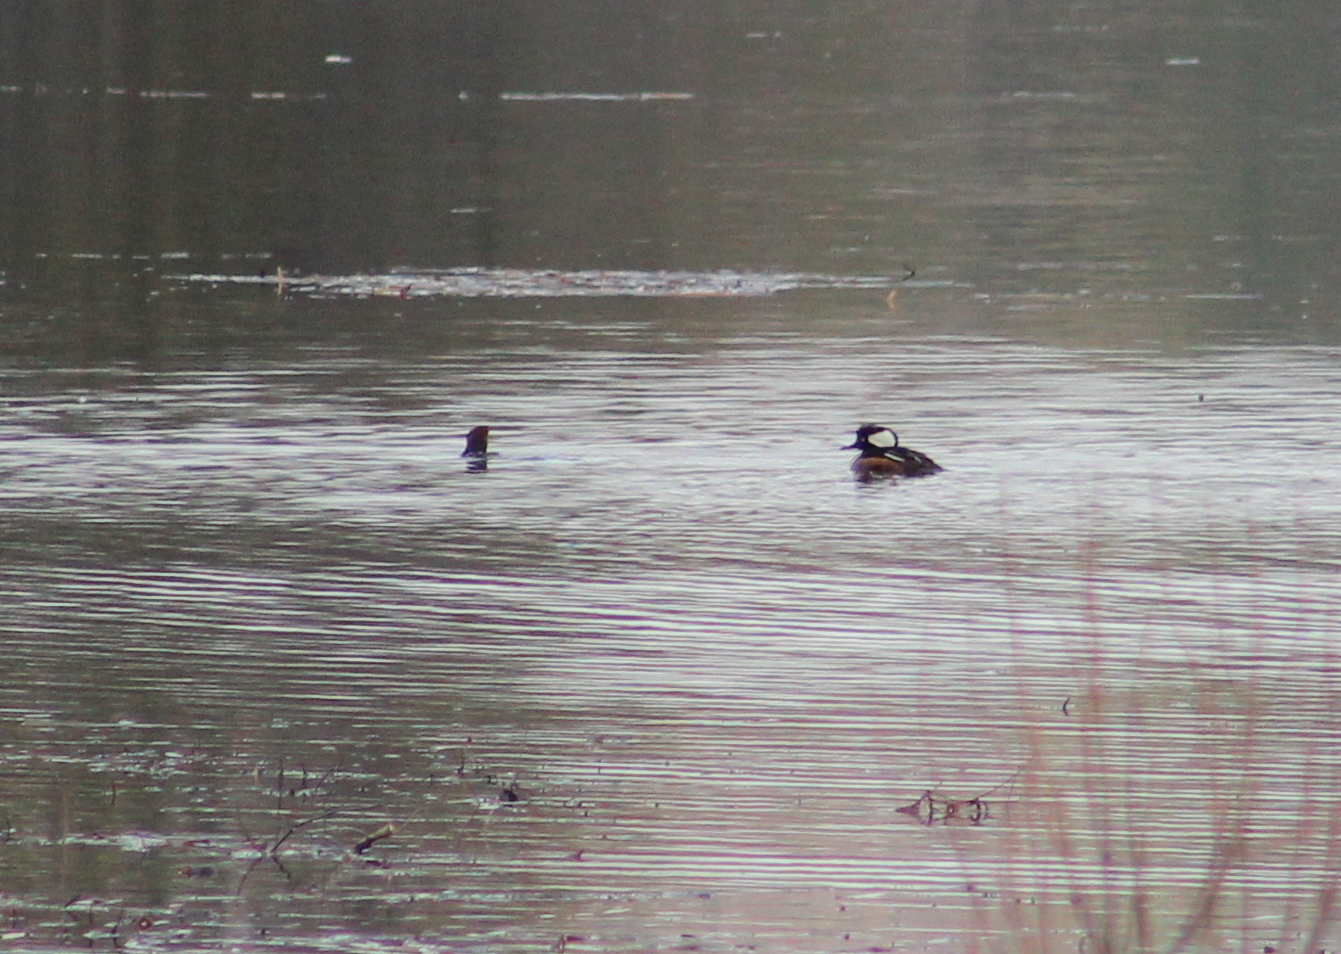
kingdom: Animalia
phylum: Chordata
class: Aves
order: Anseriformes
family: Anatidae
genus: Lophodytes
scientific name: Lophodytes cucullatus
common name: Hooded merganser
